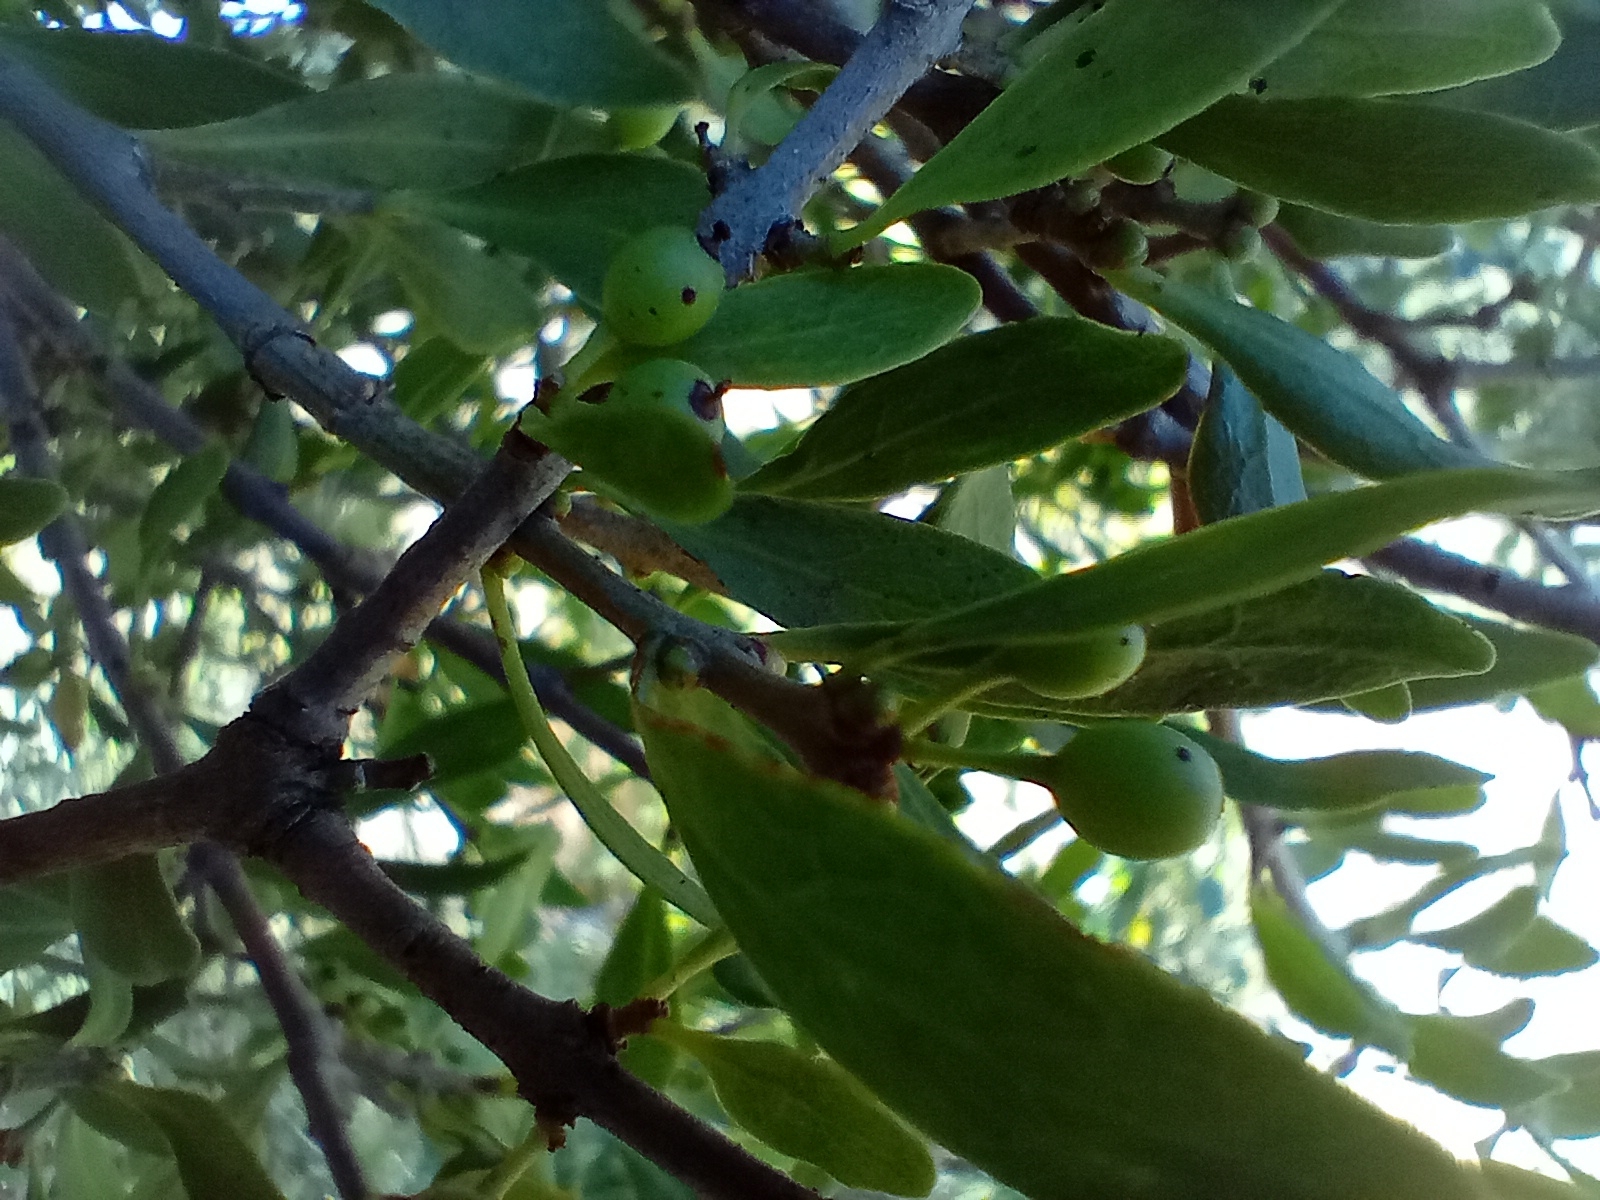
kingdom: Plantae
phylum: Tracheophyta
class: Magnoliopsida
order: Santalales
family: Loranthaceae
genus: Tupeia
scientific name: Tupeia antarctica
